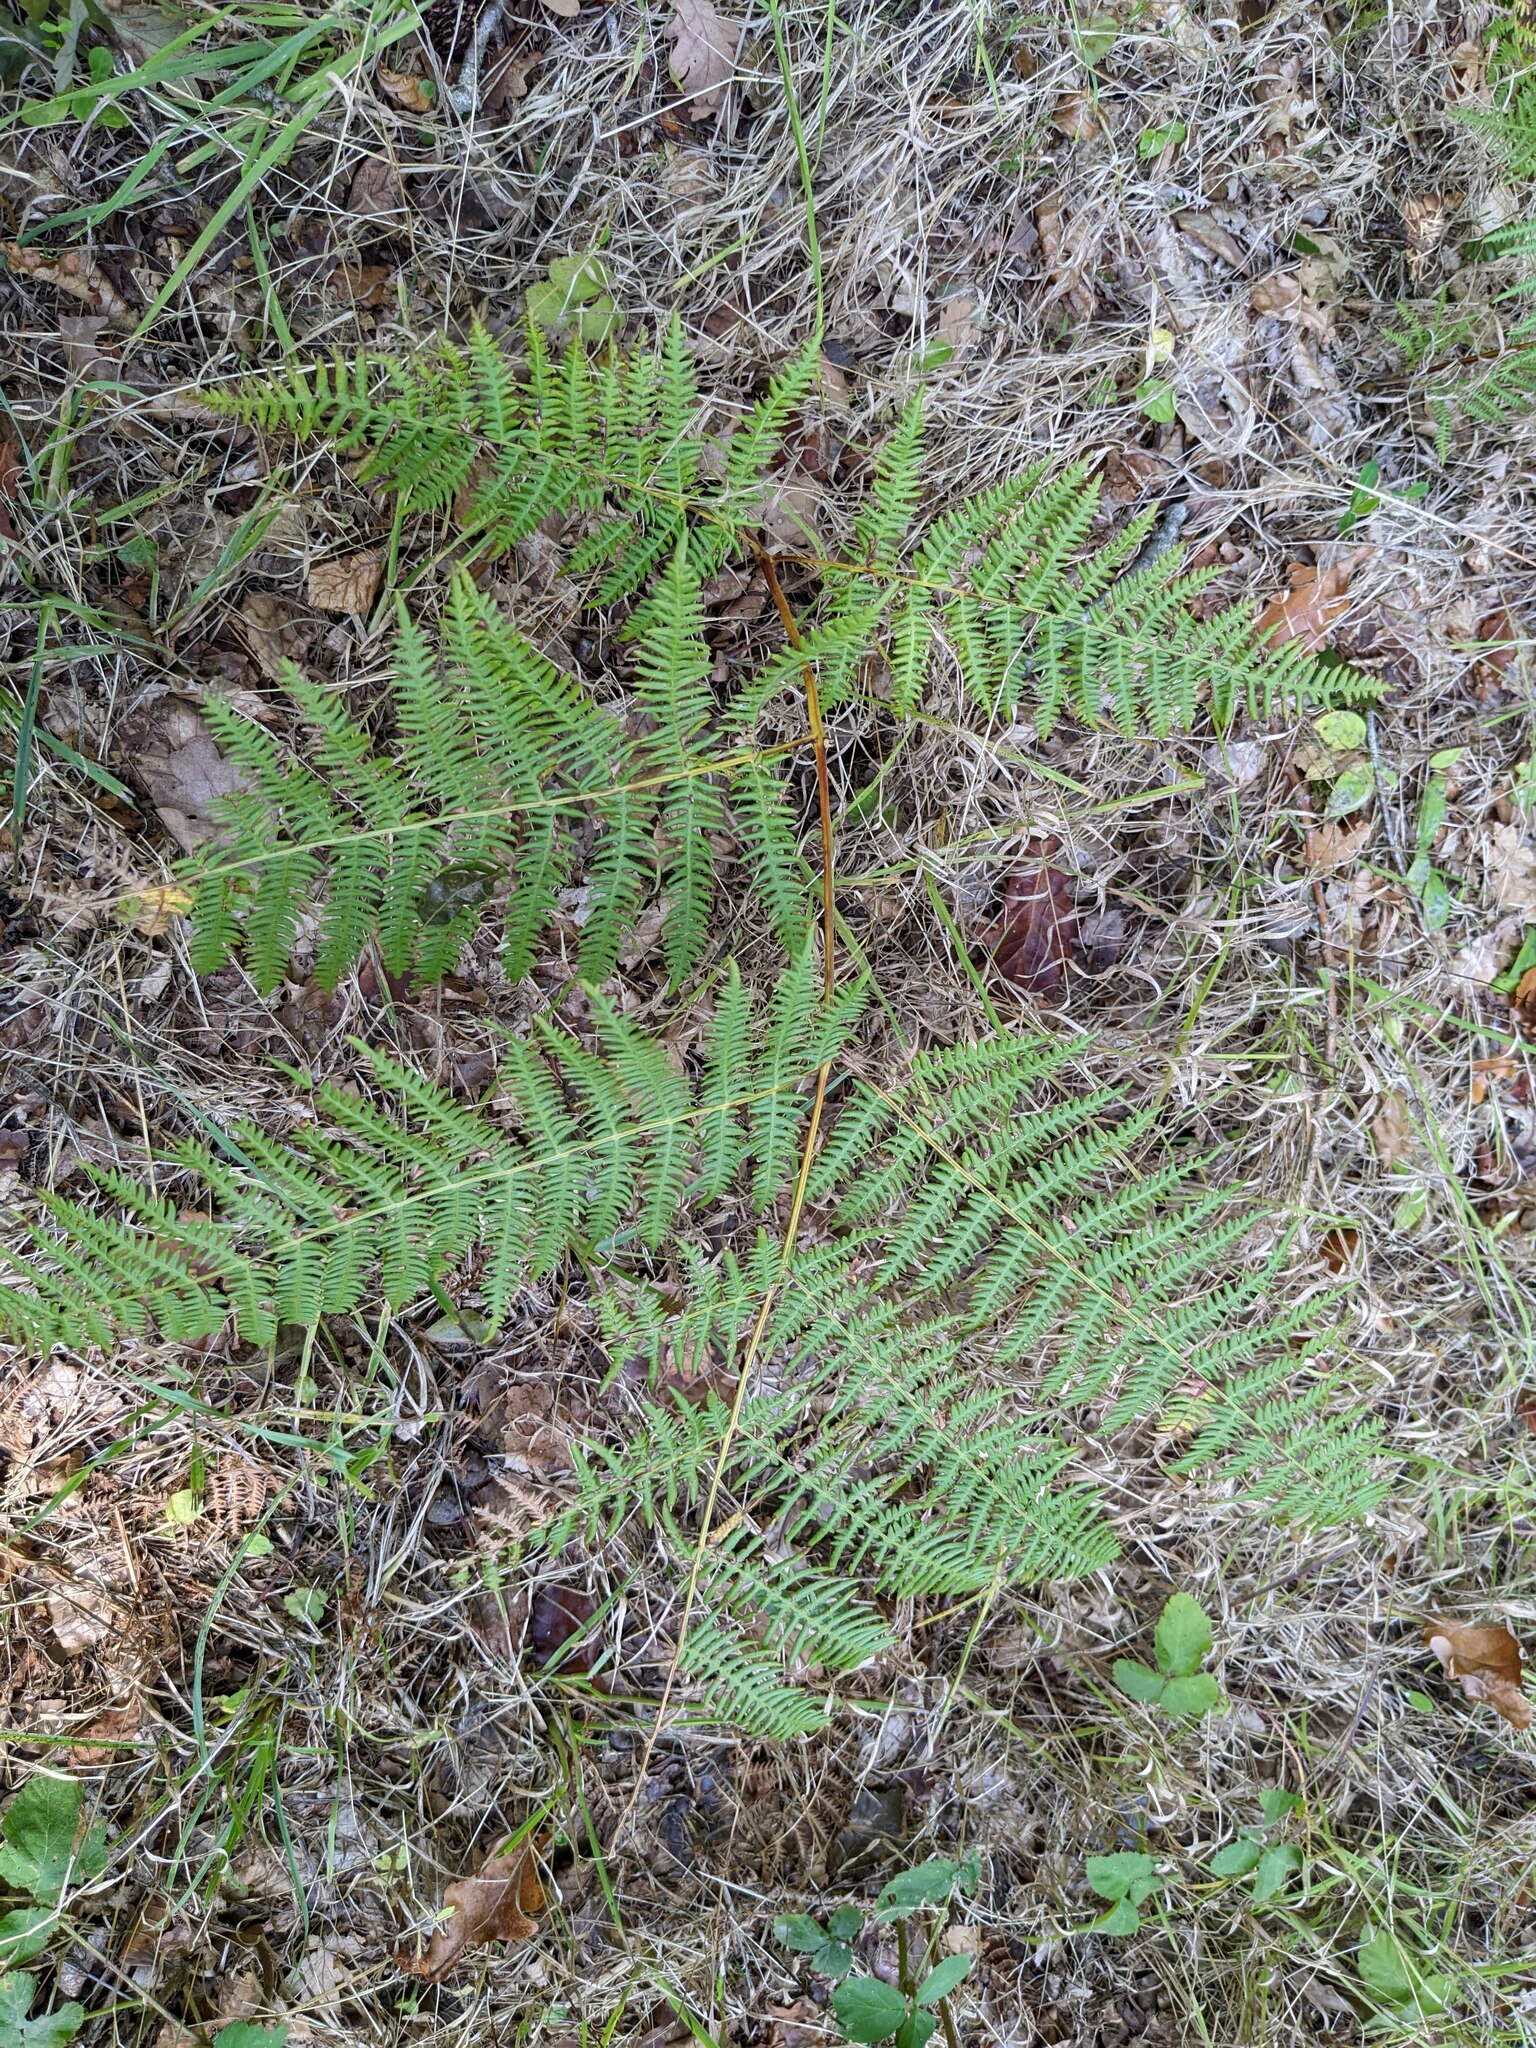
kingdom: Plantae
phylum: Tracheophyta
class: Polypodiopsida
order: Polypodiales
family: Dennstaedtiaceae
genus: Pteridium
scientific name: Pteridium aquilinum
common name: Bracken
